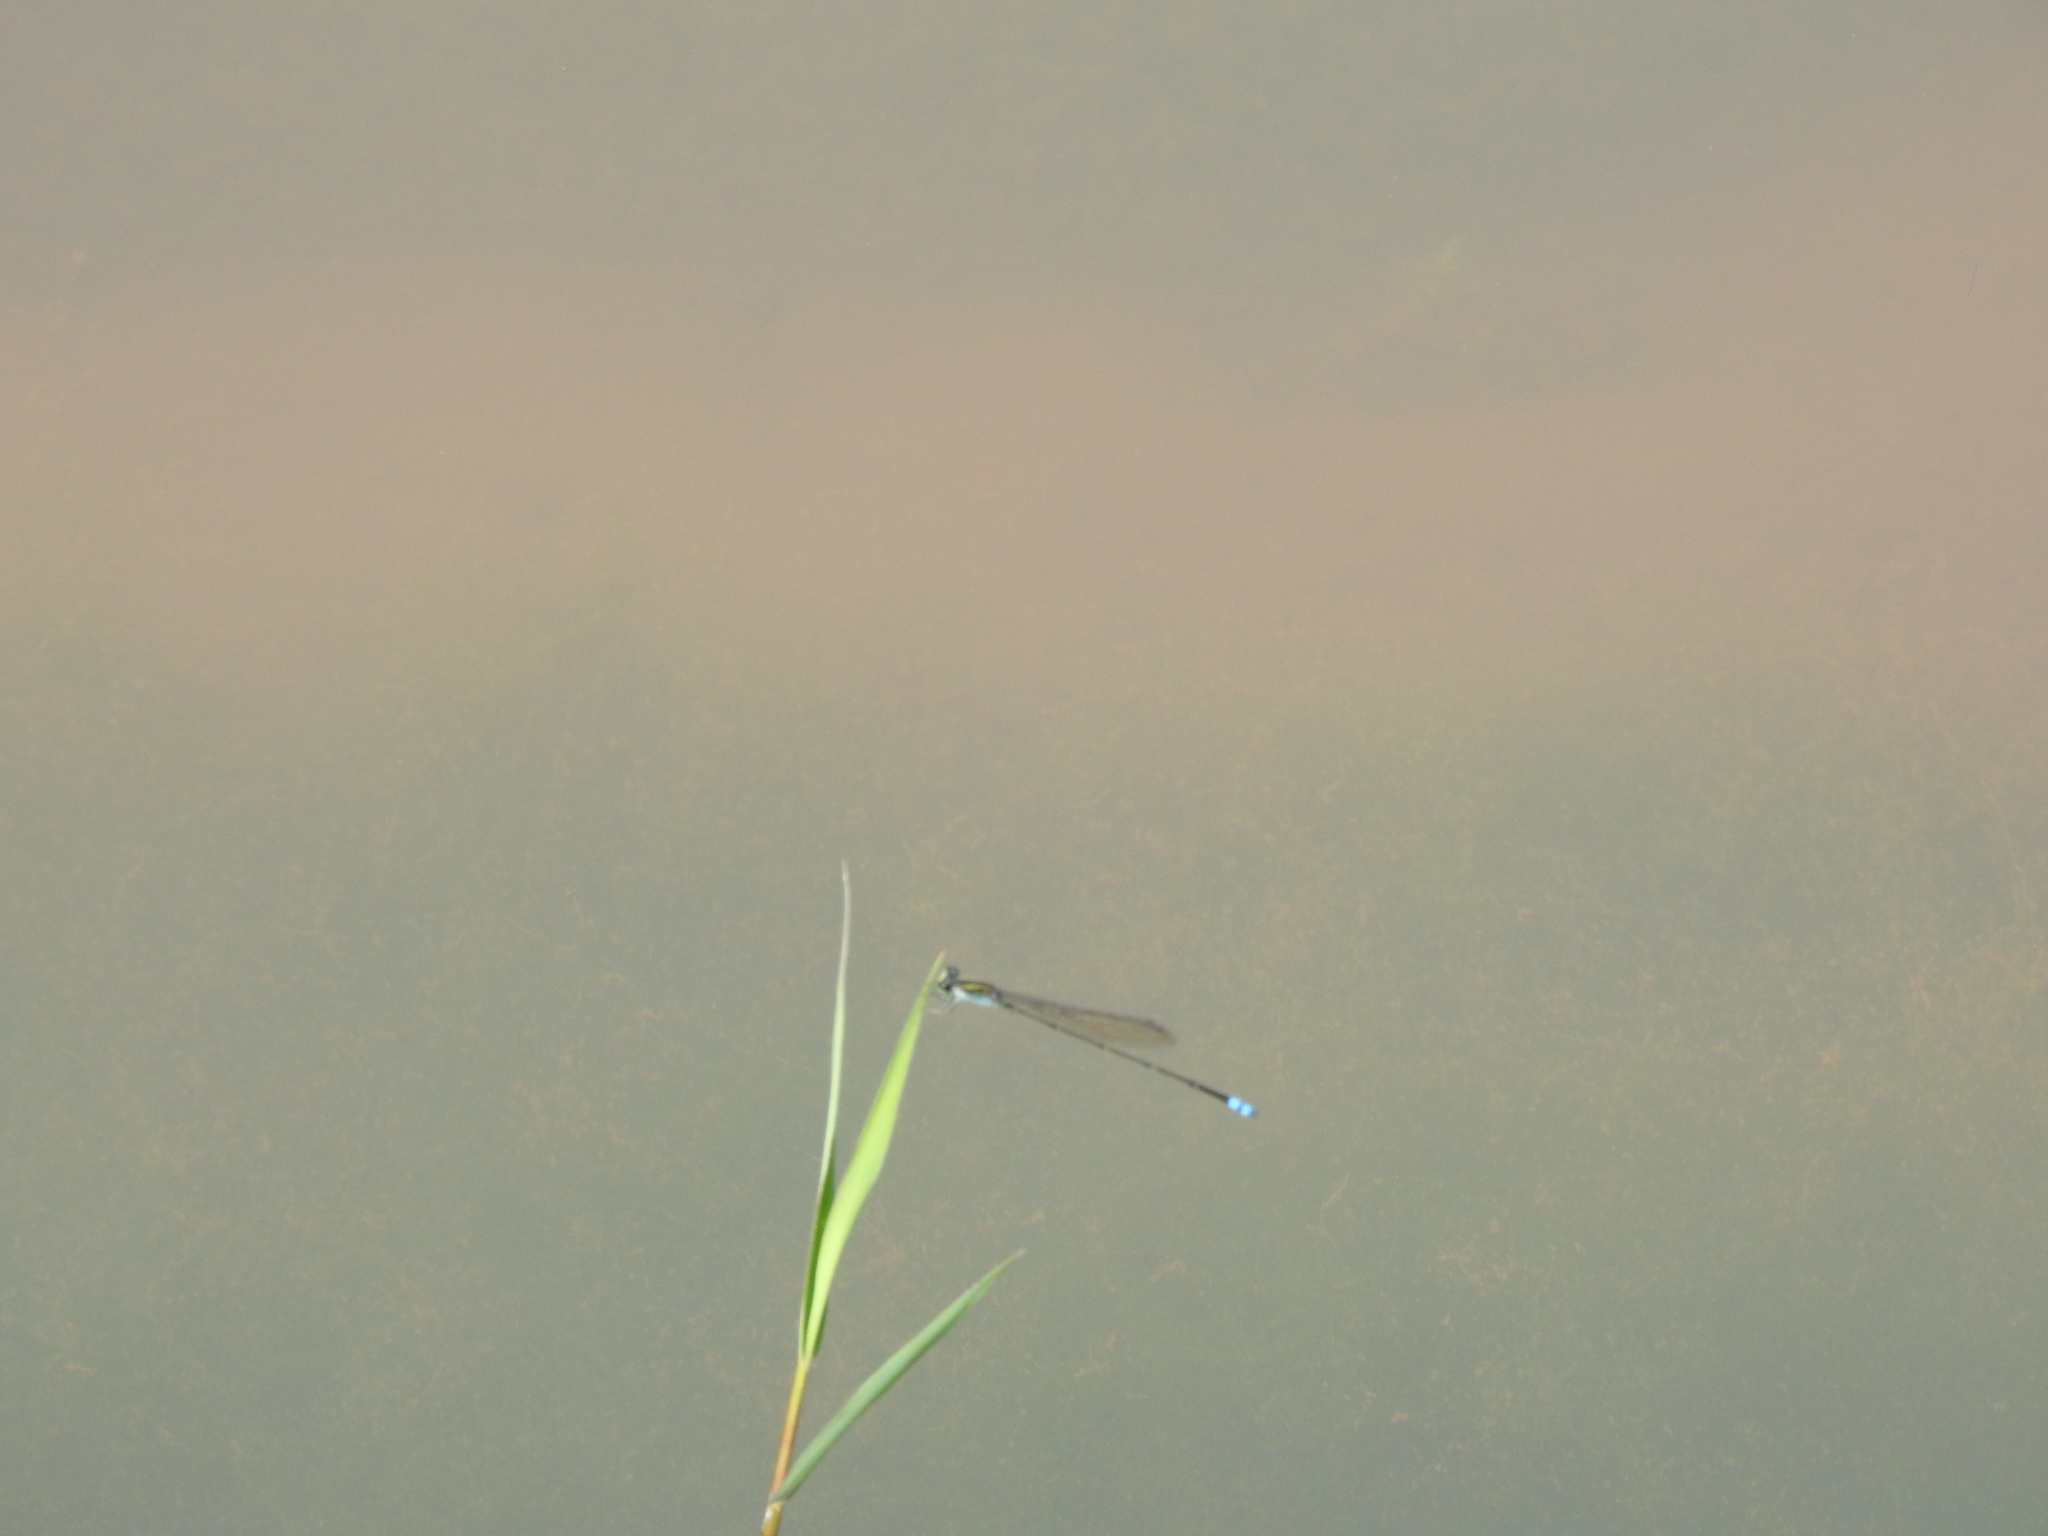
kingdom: Animalia
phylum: Arthropoda
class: Insecta
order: Odonata
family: Coenagrionidae
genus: Pseudagrion
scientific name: Pseudagrion indicum
